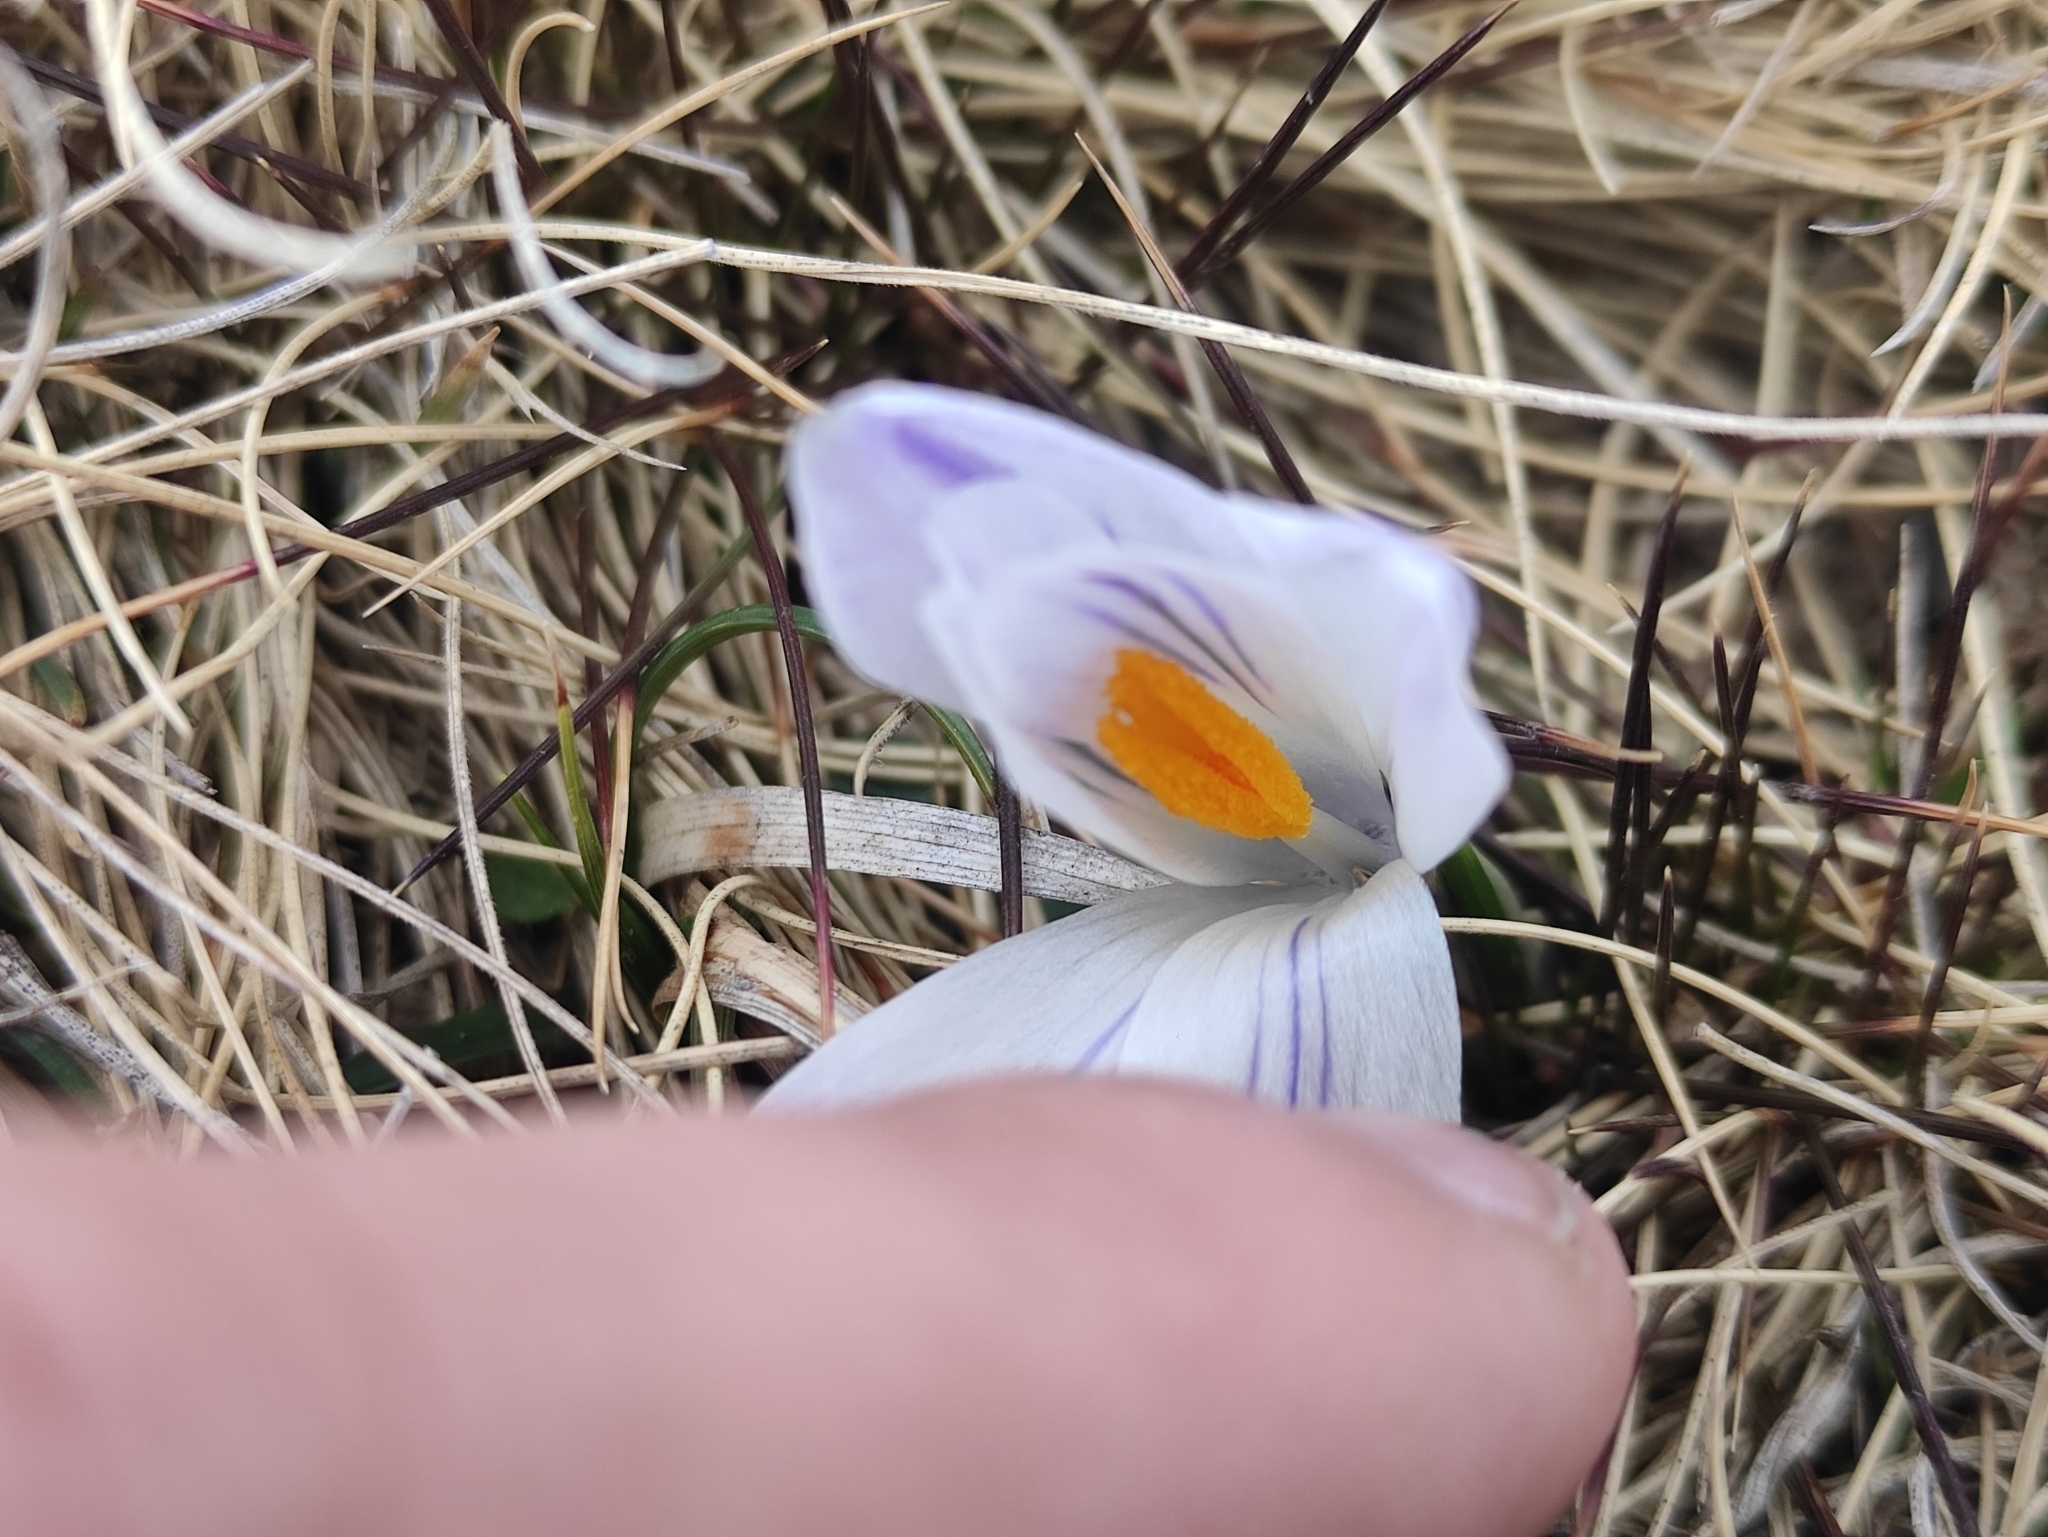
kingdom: Plantae
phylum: Tracheophyta
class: Liliopsida
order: Asparagales
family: Iridaceae
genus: Crocus
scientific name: Crocus vernus
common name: Spring crocus
